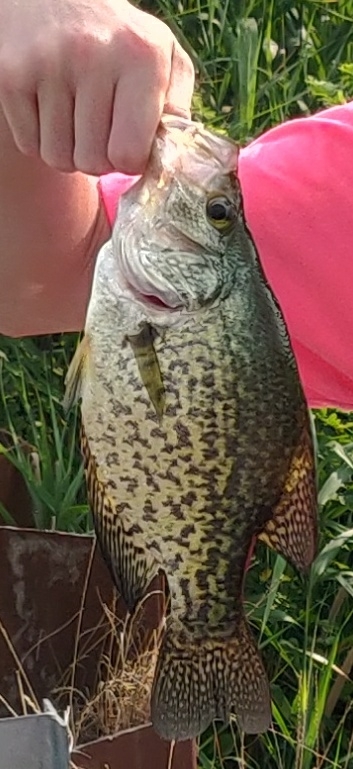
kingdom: Animalia
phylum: Chordata
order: Perciformes
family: Centrarchidae
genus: Pomoxis
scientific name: Pomoxis nigromaculatus
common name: Black crappie
